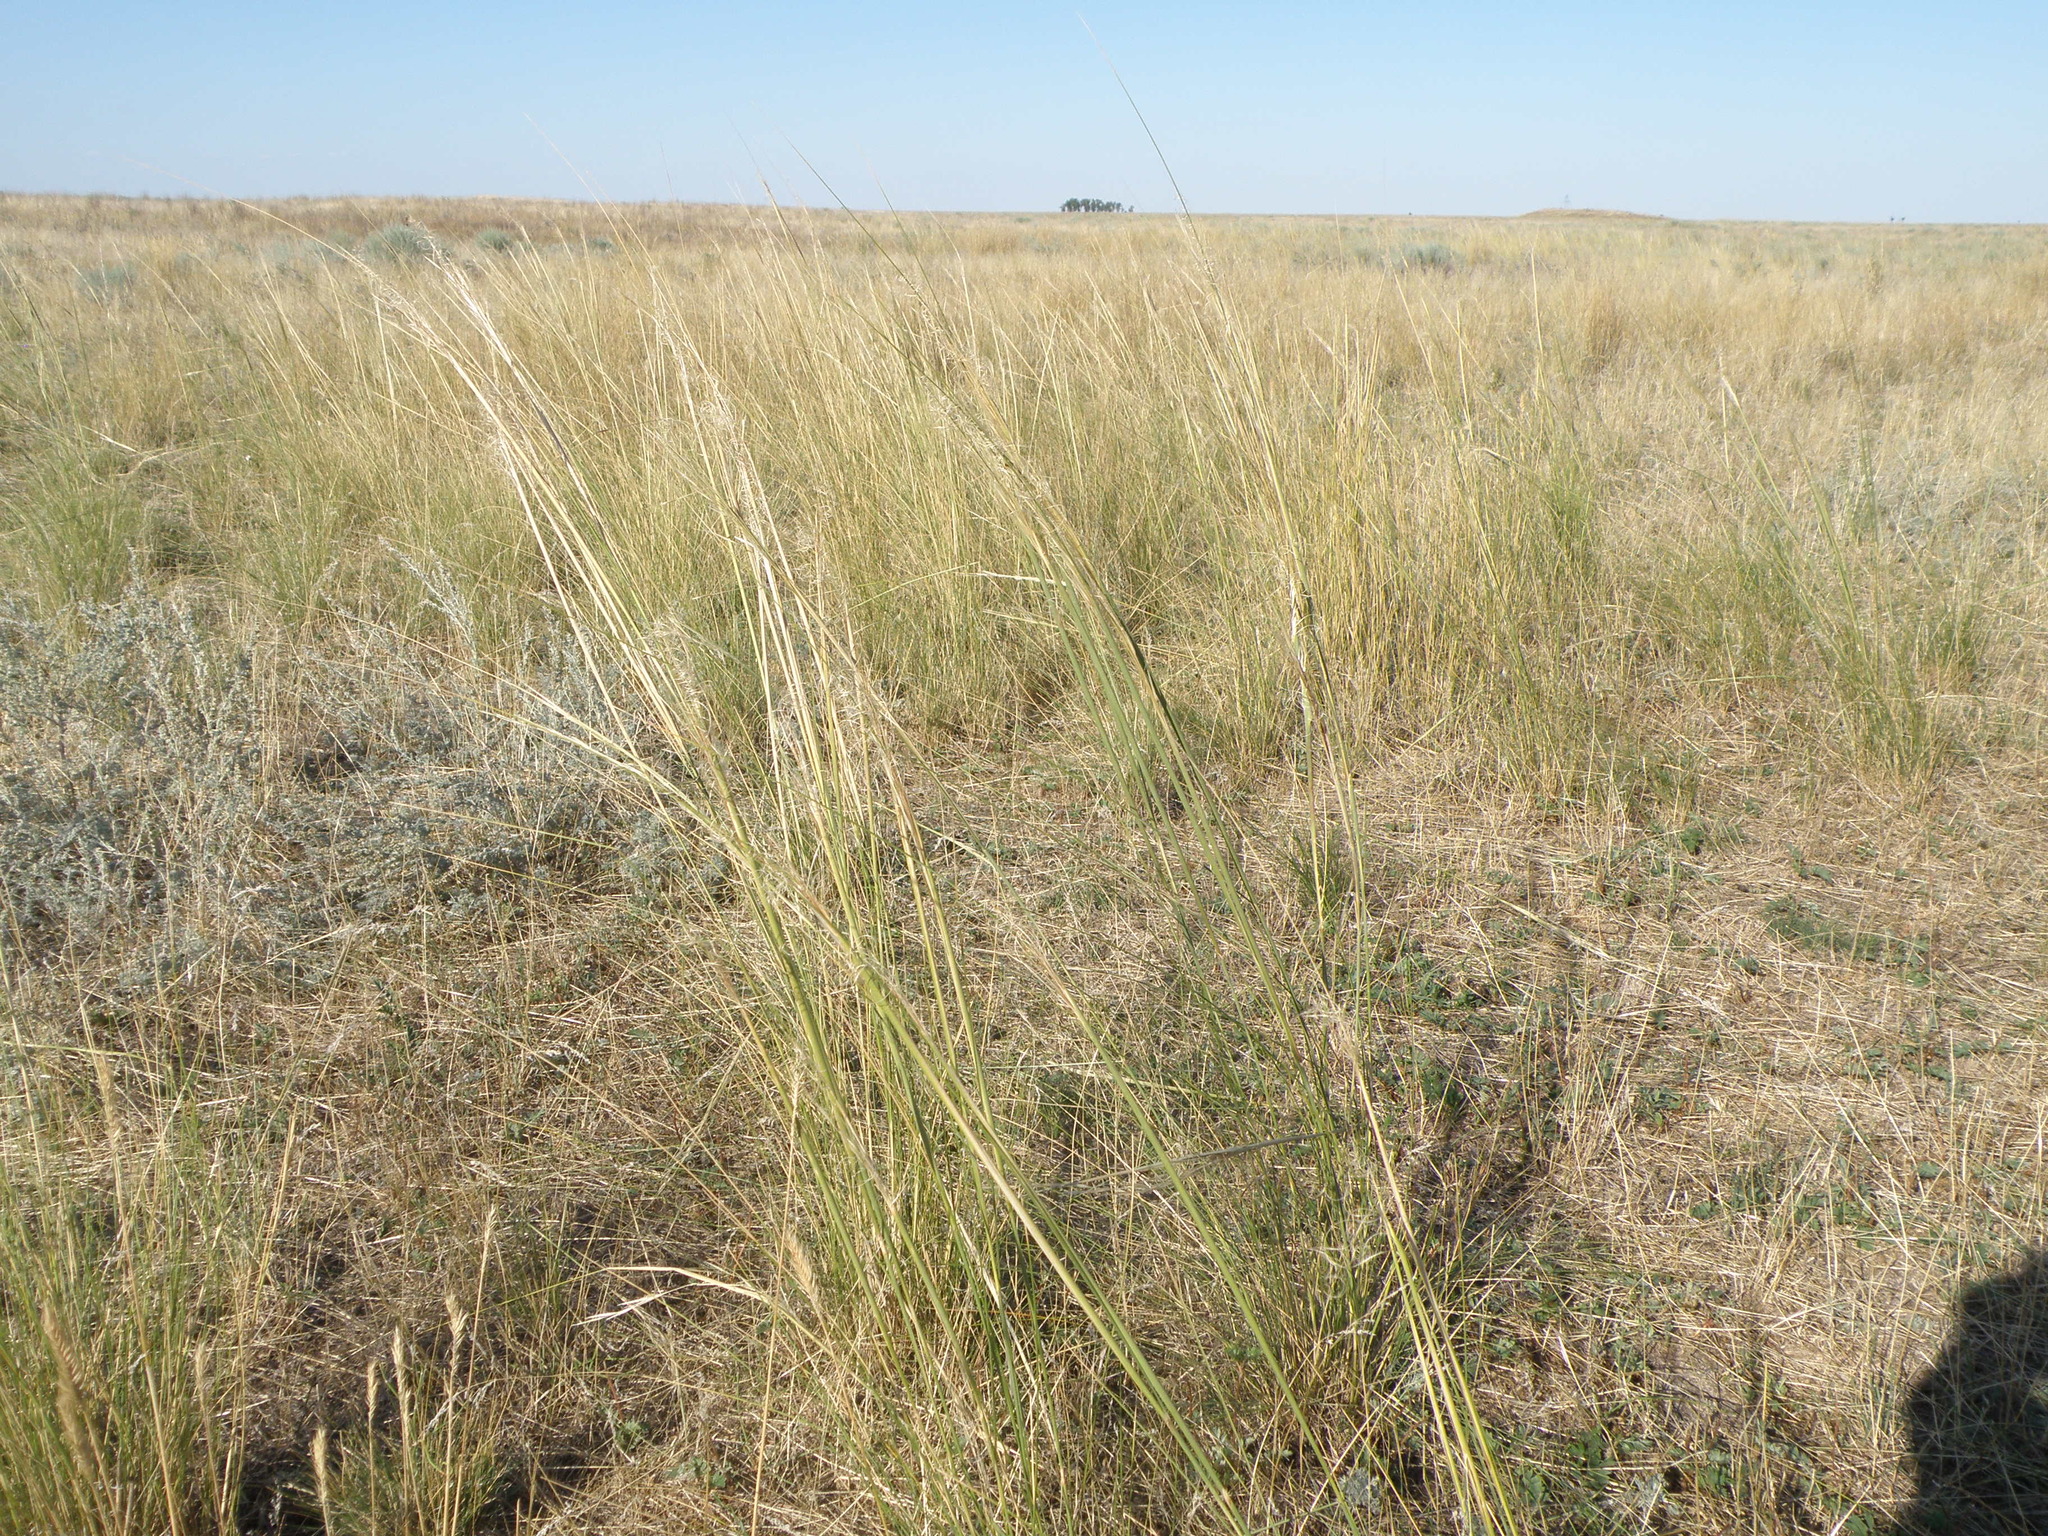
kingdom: Plantae
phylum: Tracheophyta
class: Liliopsida
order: Poales
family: Poaceae
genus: Stipa
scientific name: Stipa capillata
